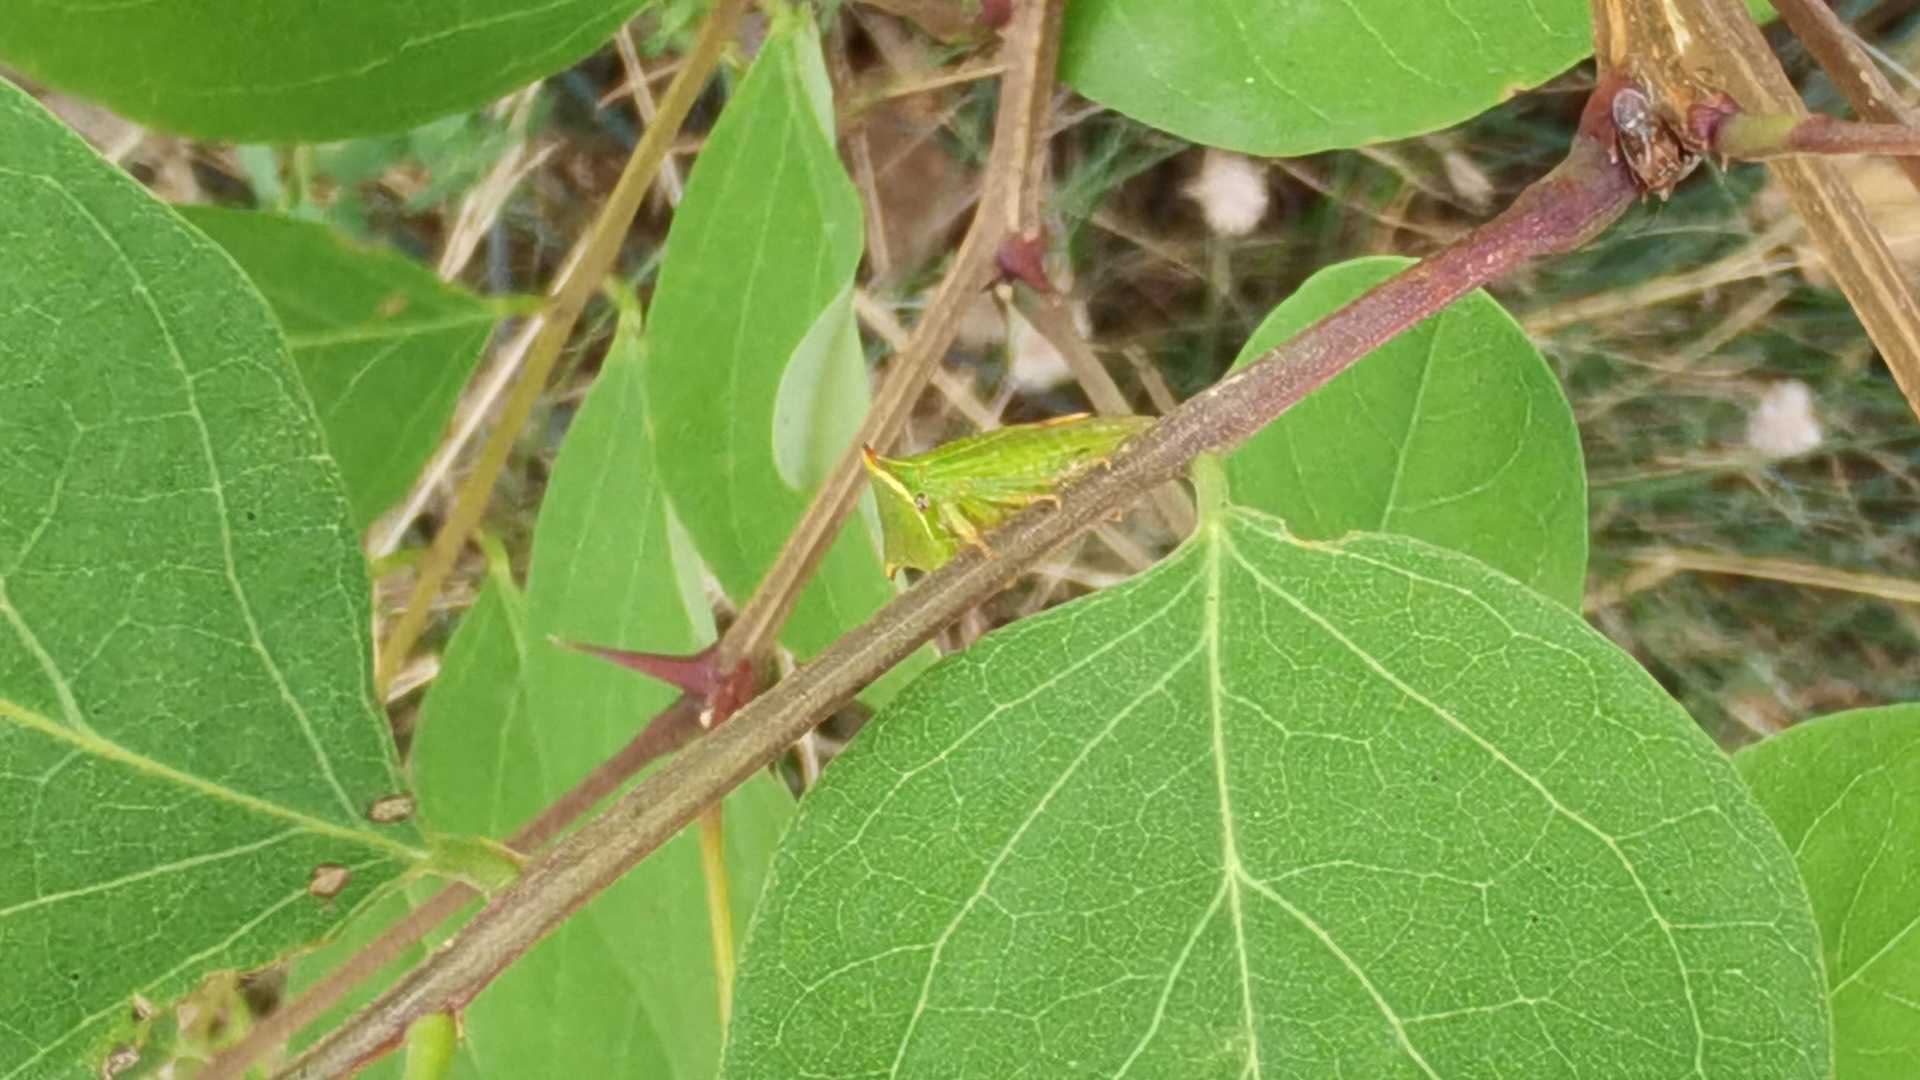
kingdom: Animalia
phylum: Arthropoda
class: Insecta
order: Hemiptera
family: Membracidae
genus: Stictocephala
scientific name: Stictocephala bisonia
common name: American buffalo treehopper
